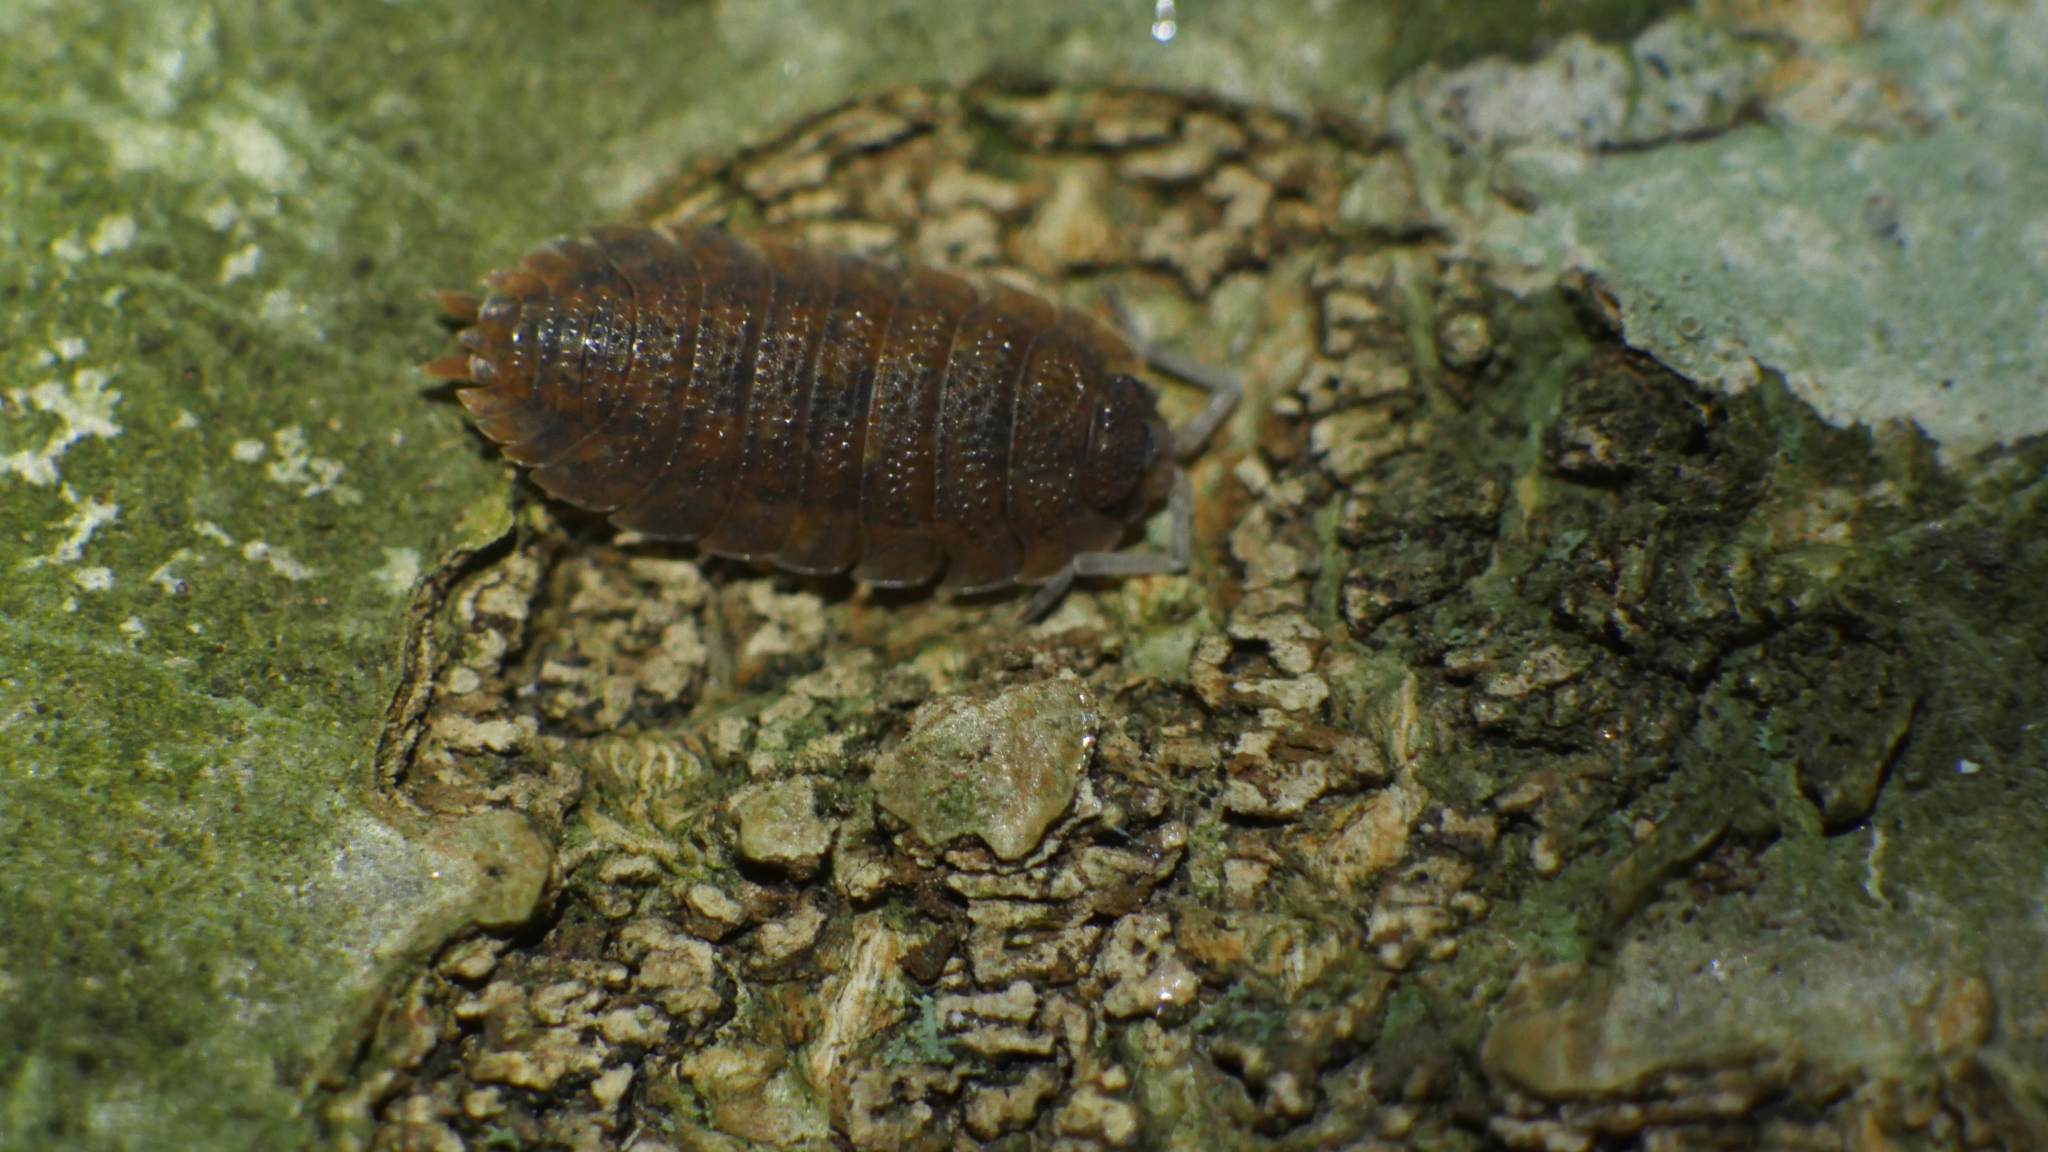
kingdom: Animalia
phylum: Arthropoda
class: Malacostraca
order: Isopoda
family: Porcellionidae
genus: Porcellio
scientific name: Porcellio scaber
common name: Common rough woodlouse
